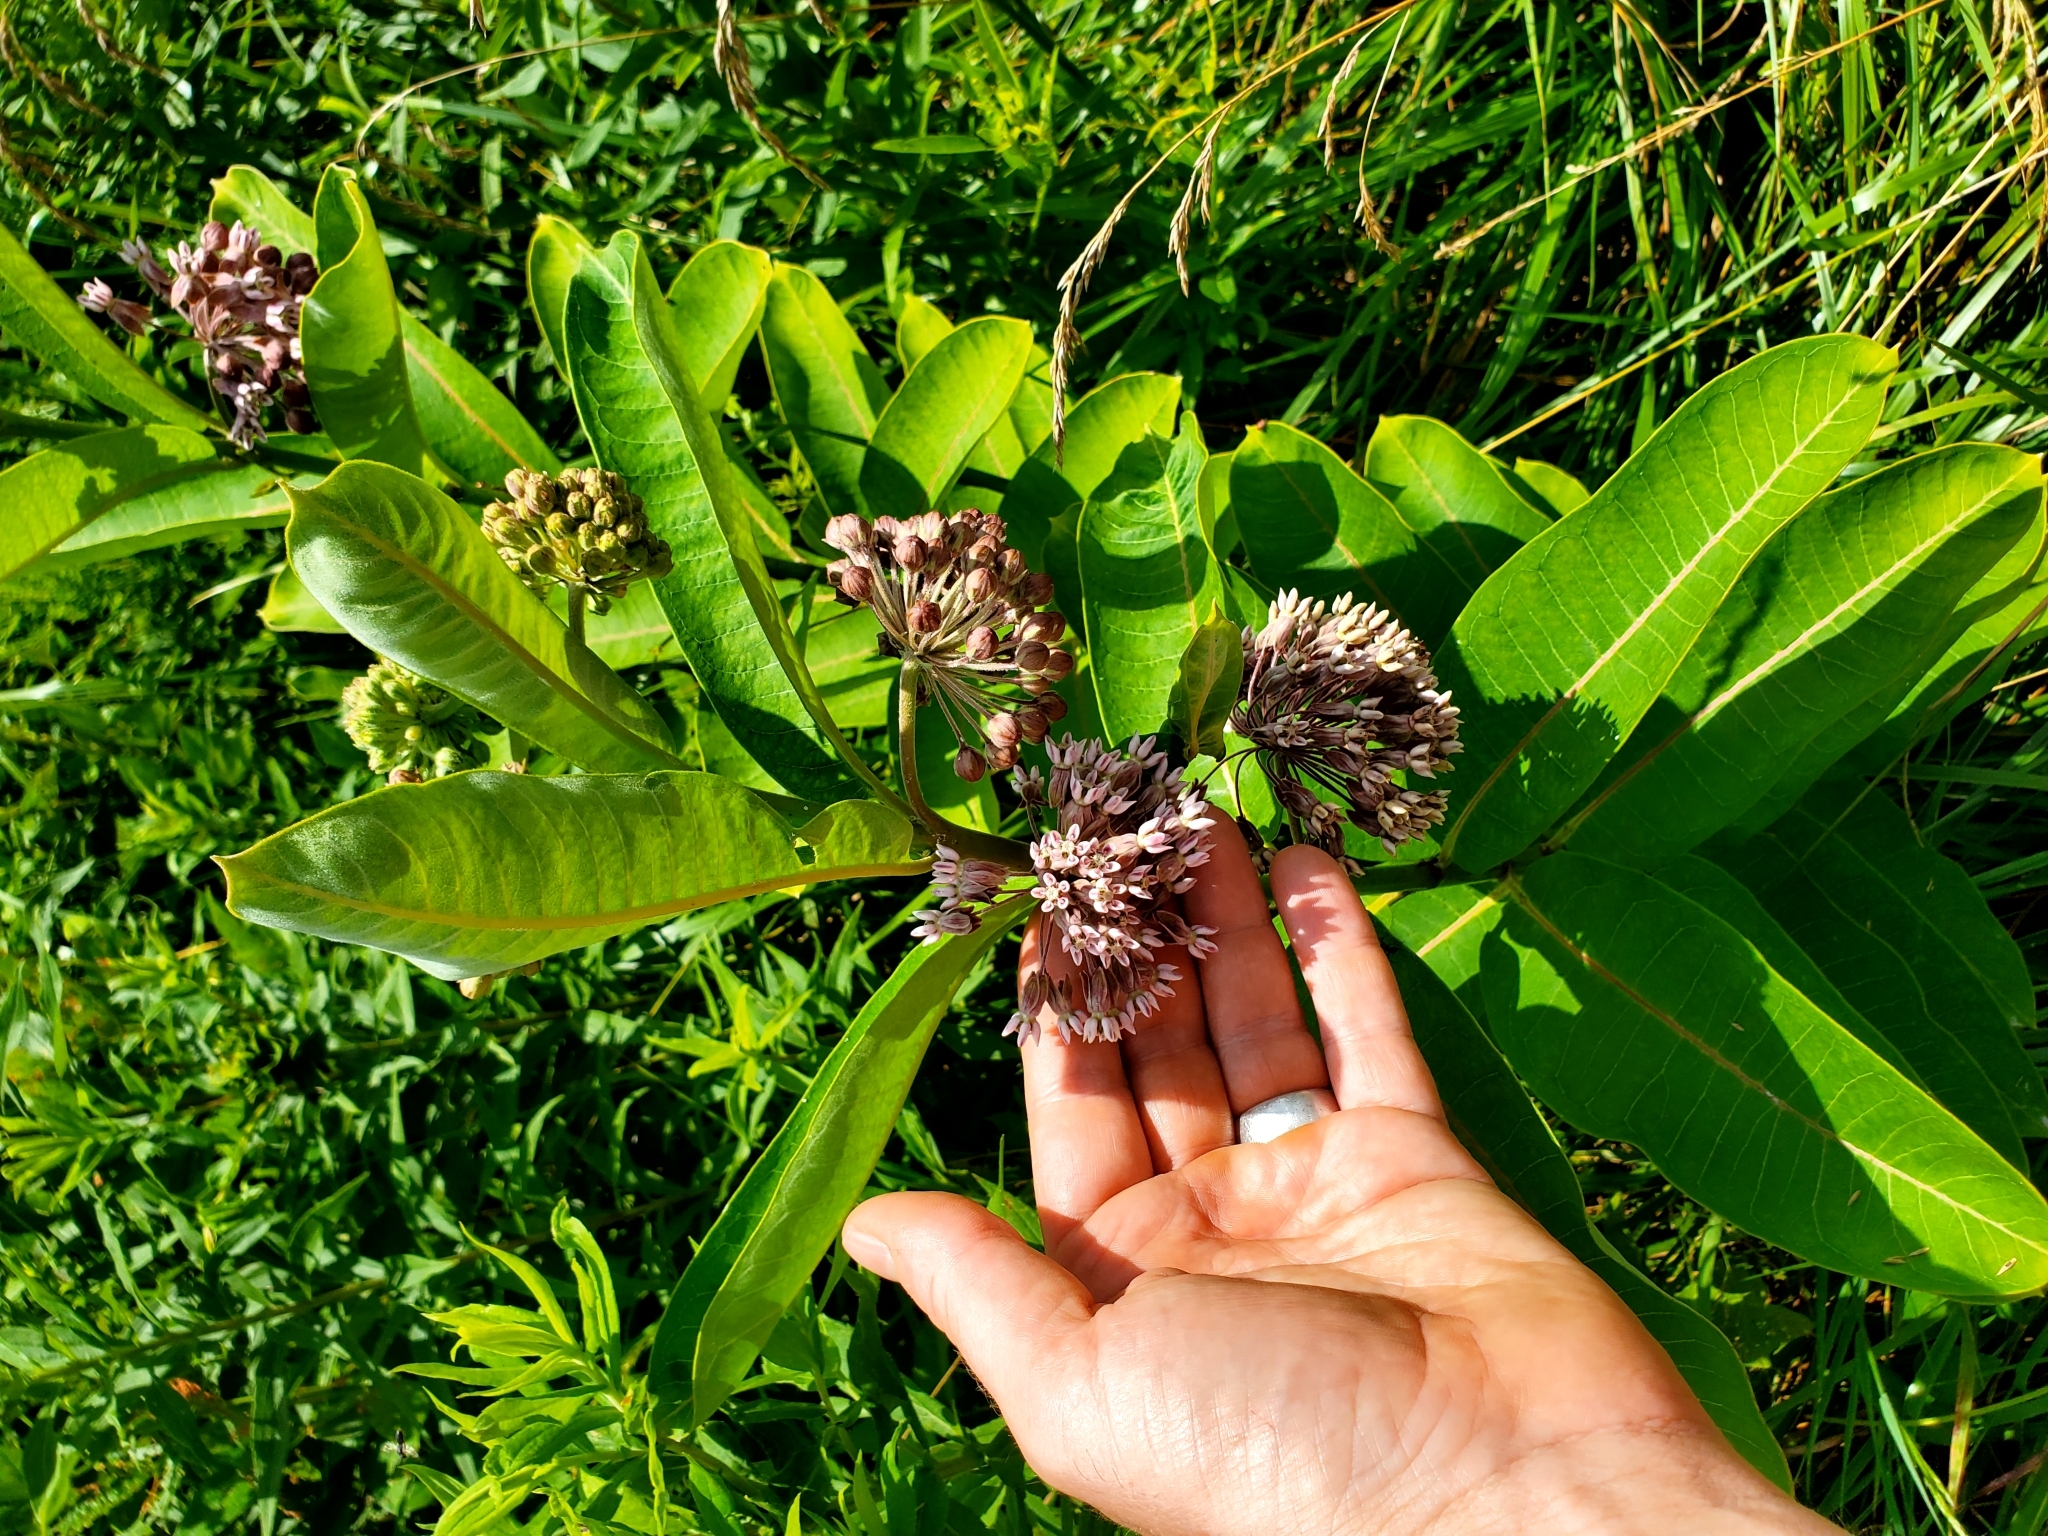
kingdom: Plantae
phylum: Tracheophyta
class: Magnoliopsida
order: Gentianales
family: Apocynaceae
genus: Asclepias
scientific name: Asclepias syriaca
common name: Common milkweed
